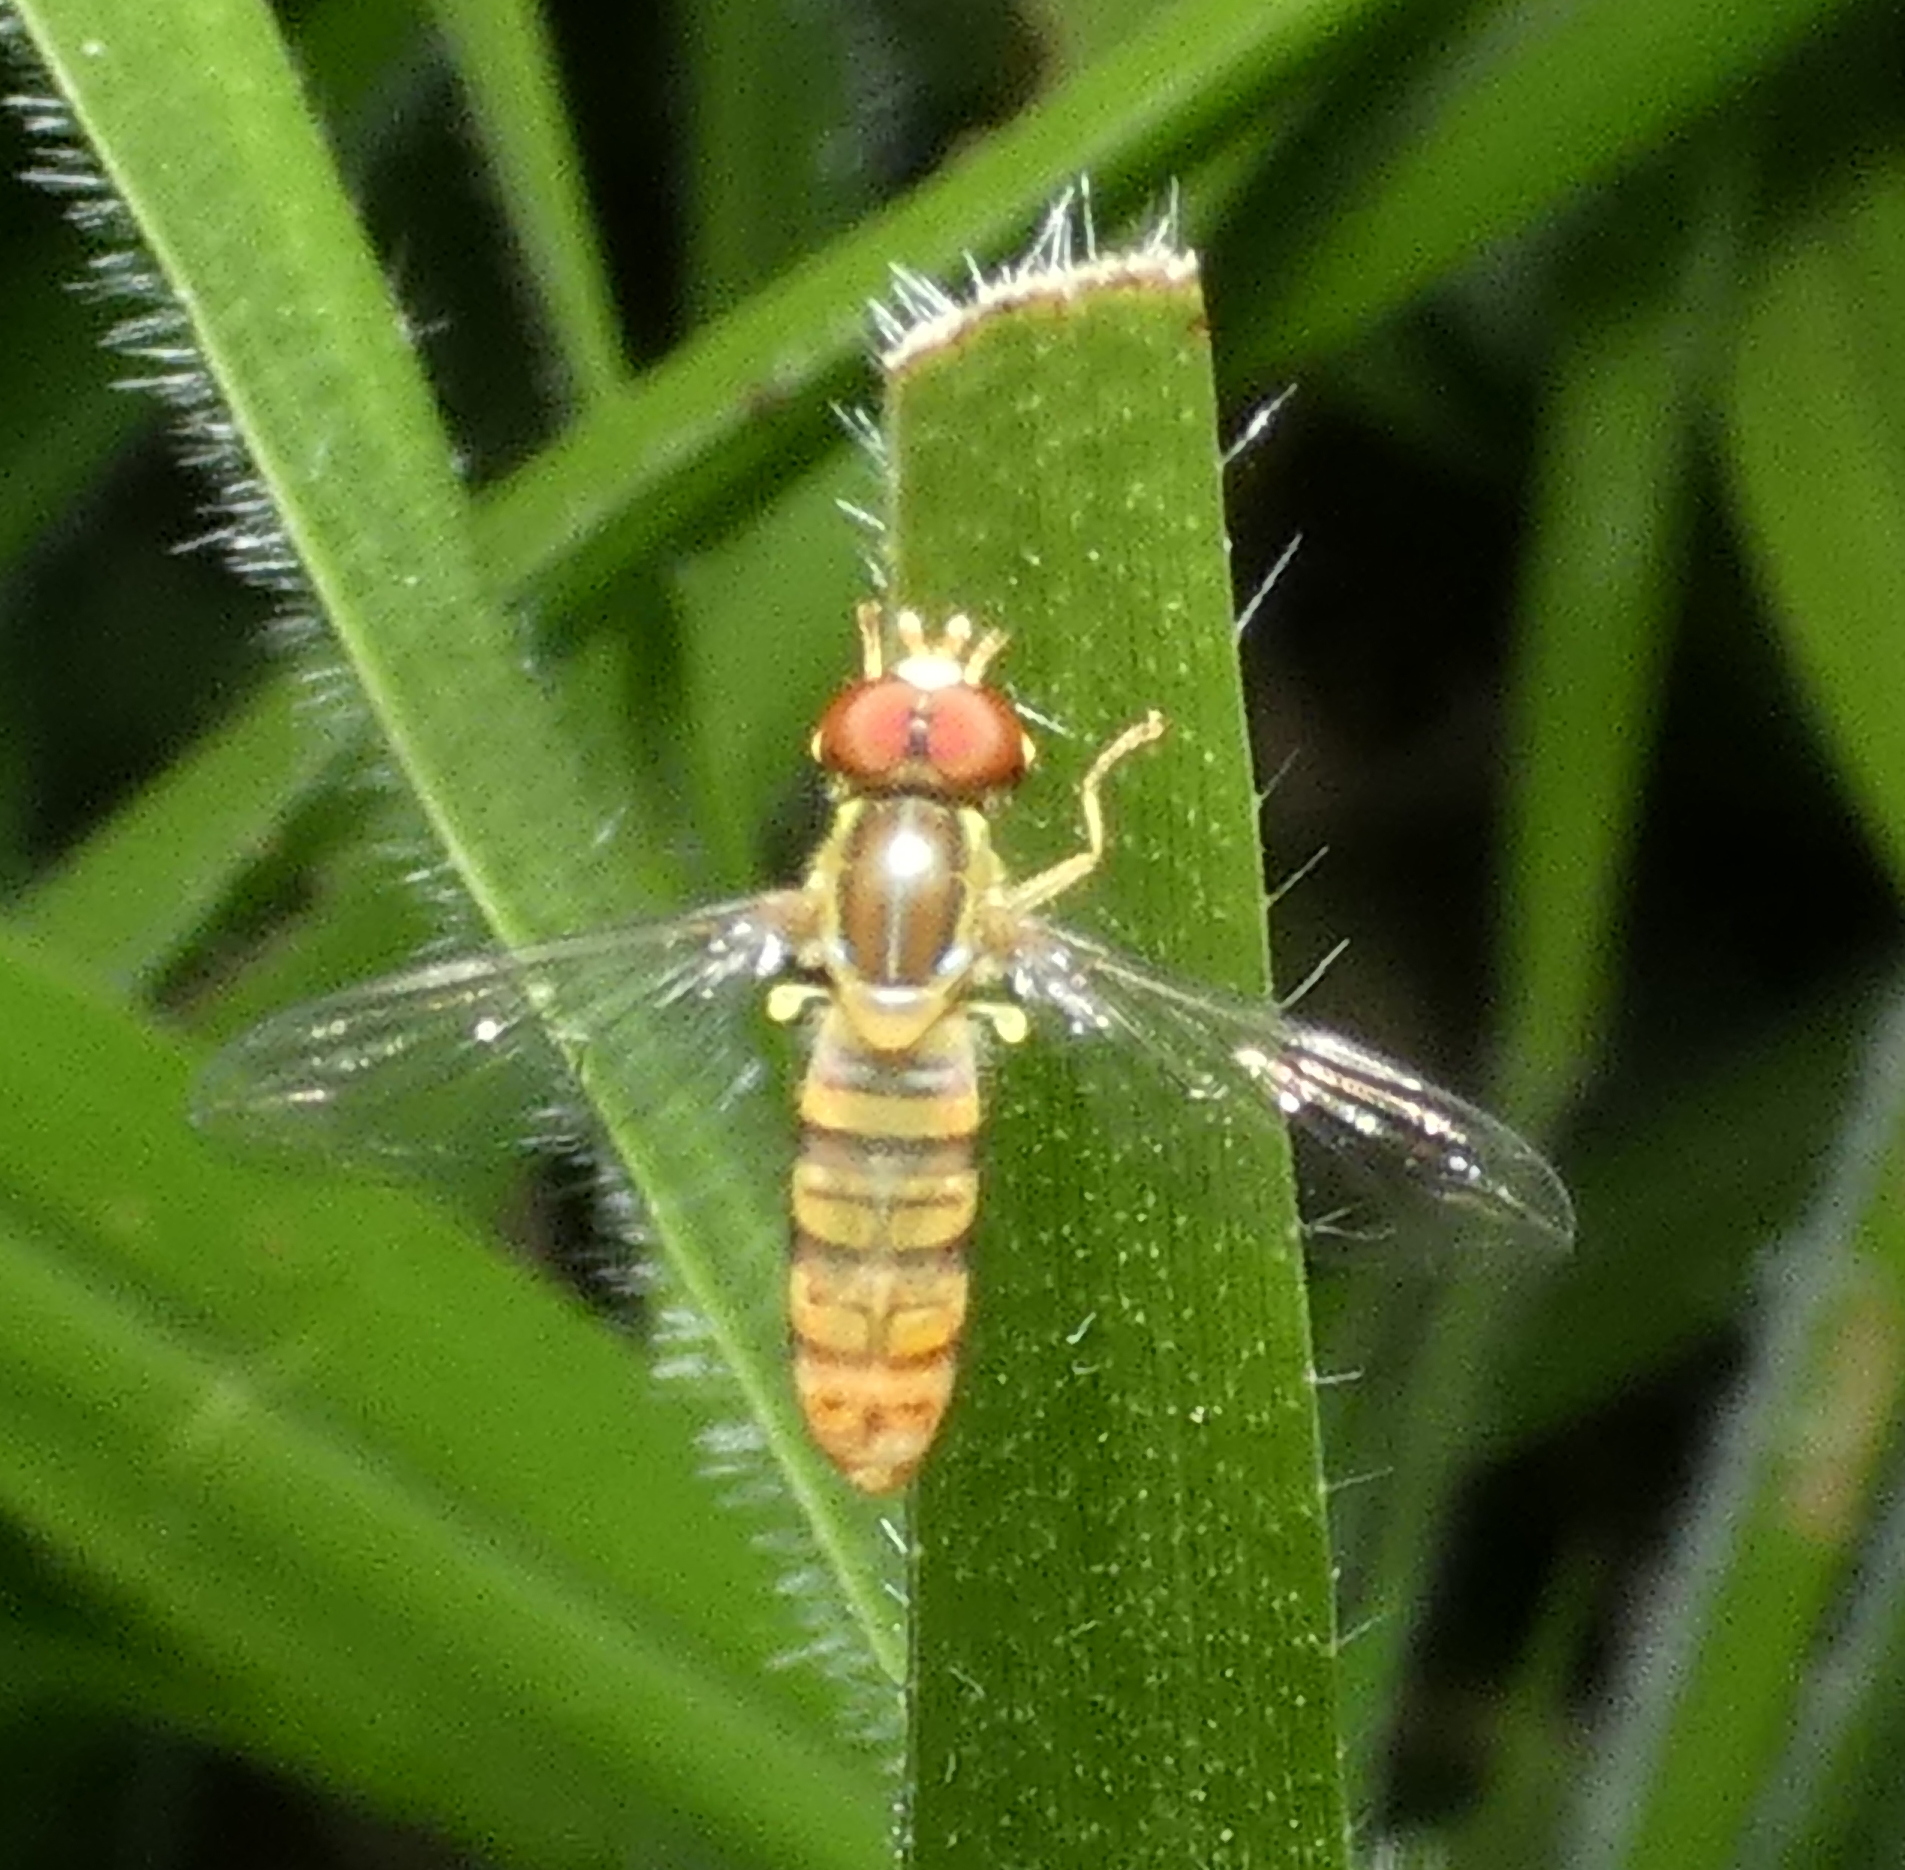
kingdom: Animalia
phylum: Arthropoda
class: Insecta
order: Diptera
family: Syrphidae
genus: Toxomerus
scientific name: Toxomerus politus
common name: Maize calligrapher
